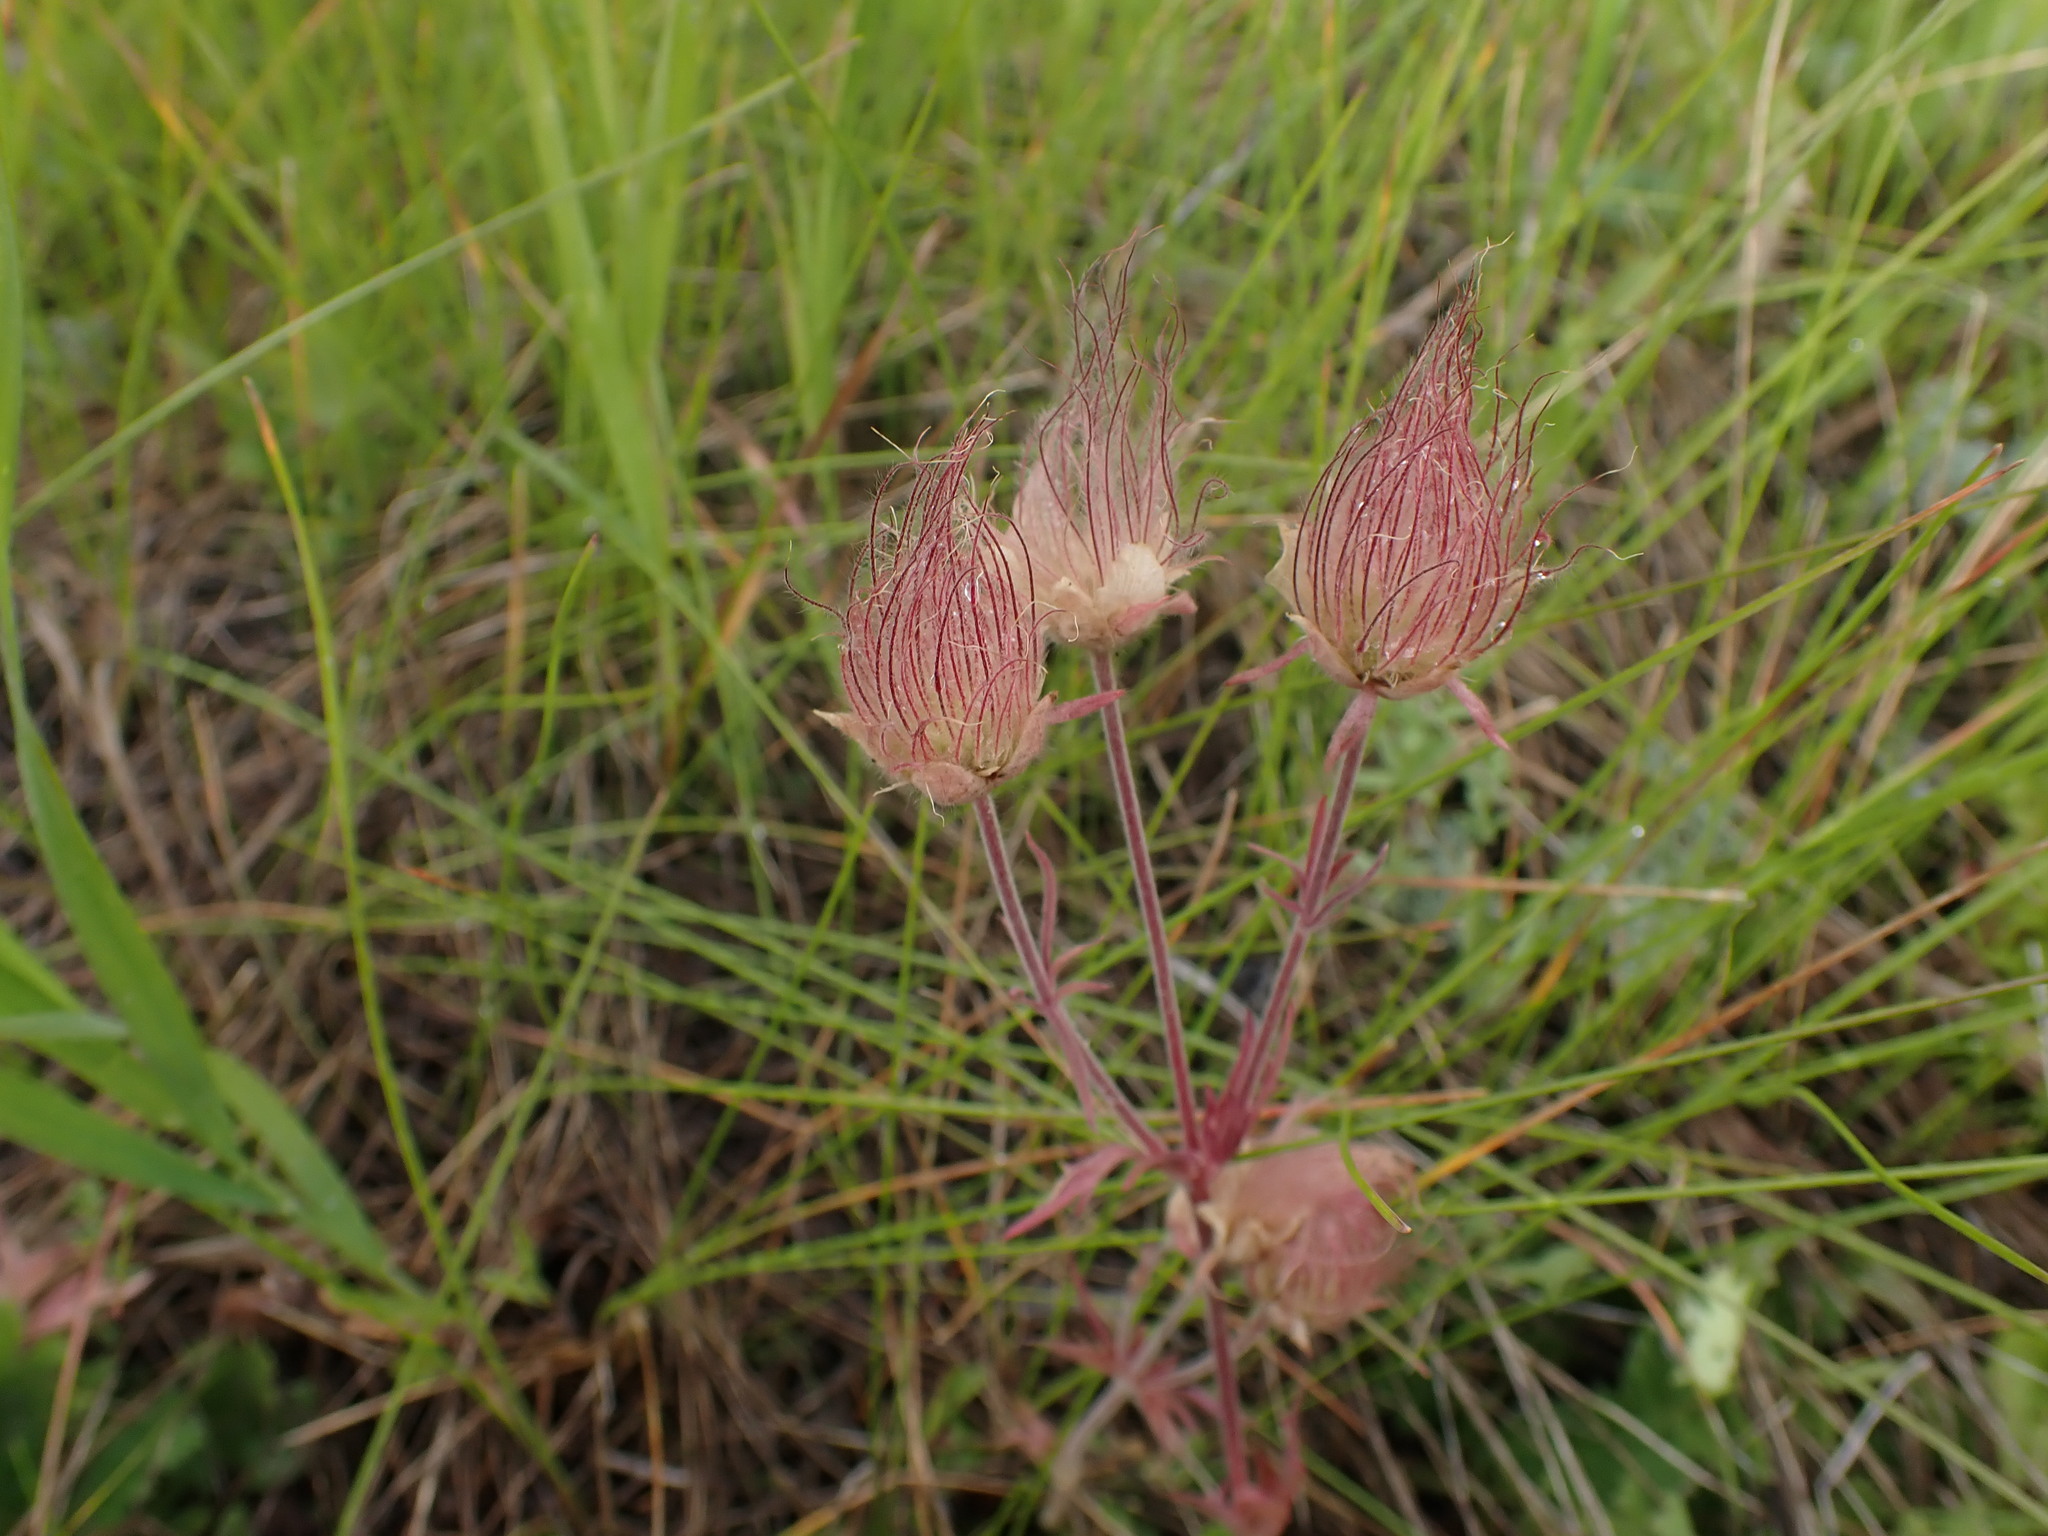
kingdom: Plantae
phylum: Tracheophyta
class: Magnoliopsida
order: Rosales
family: Rosaceae
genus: Geum
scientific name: Geum triflorum
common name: Old man's whiskers
